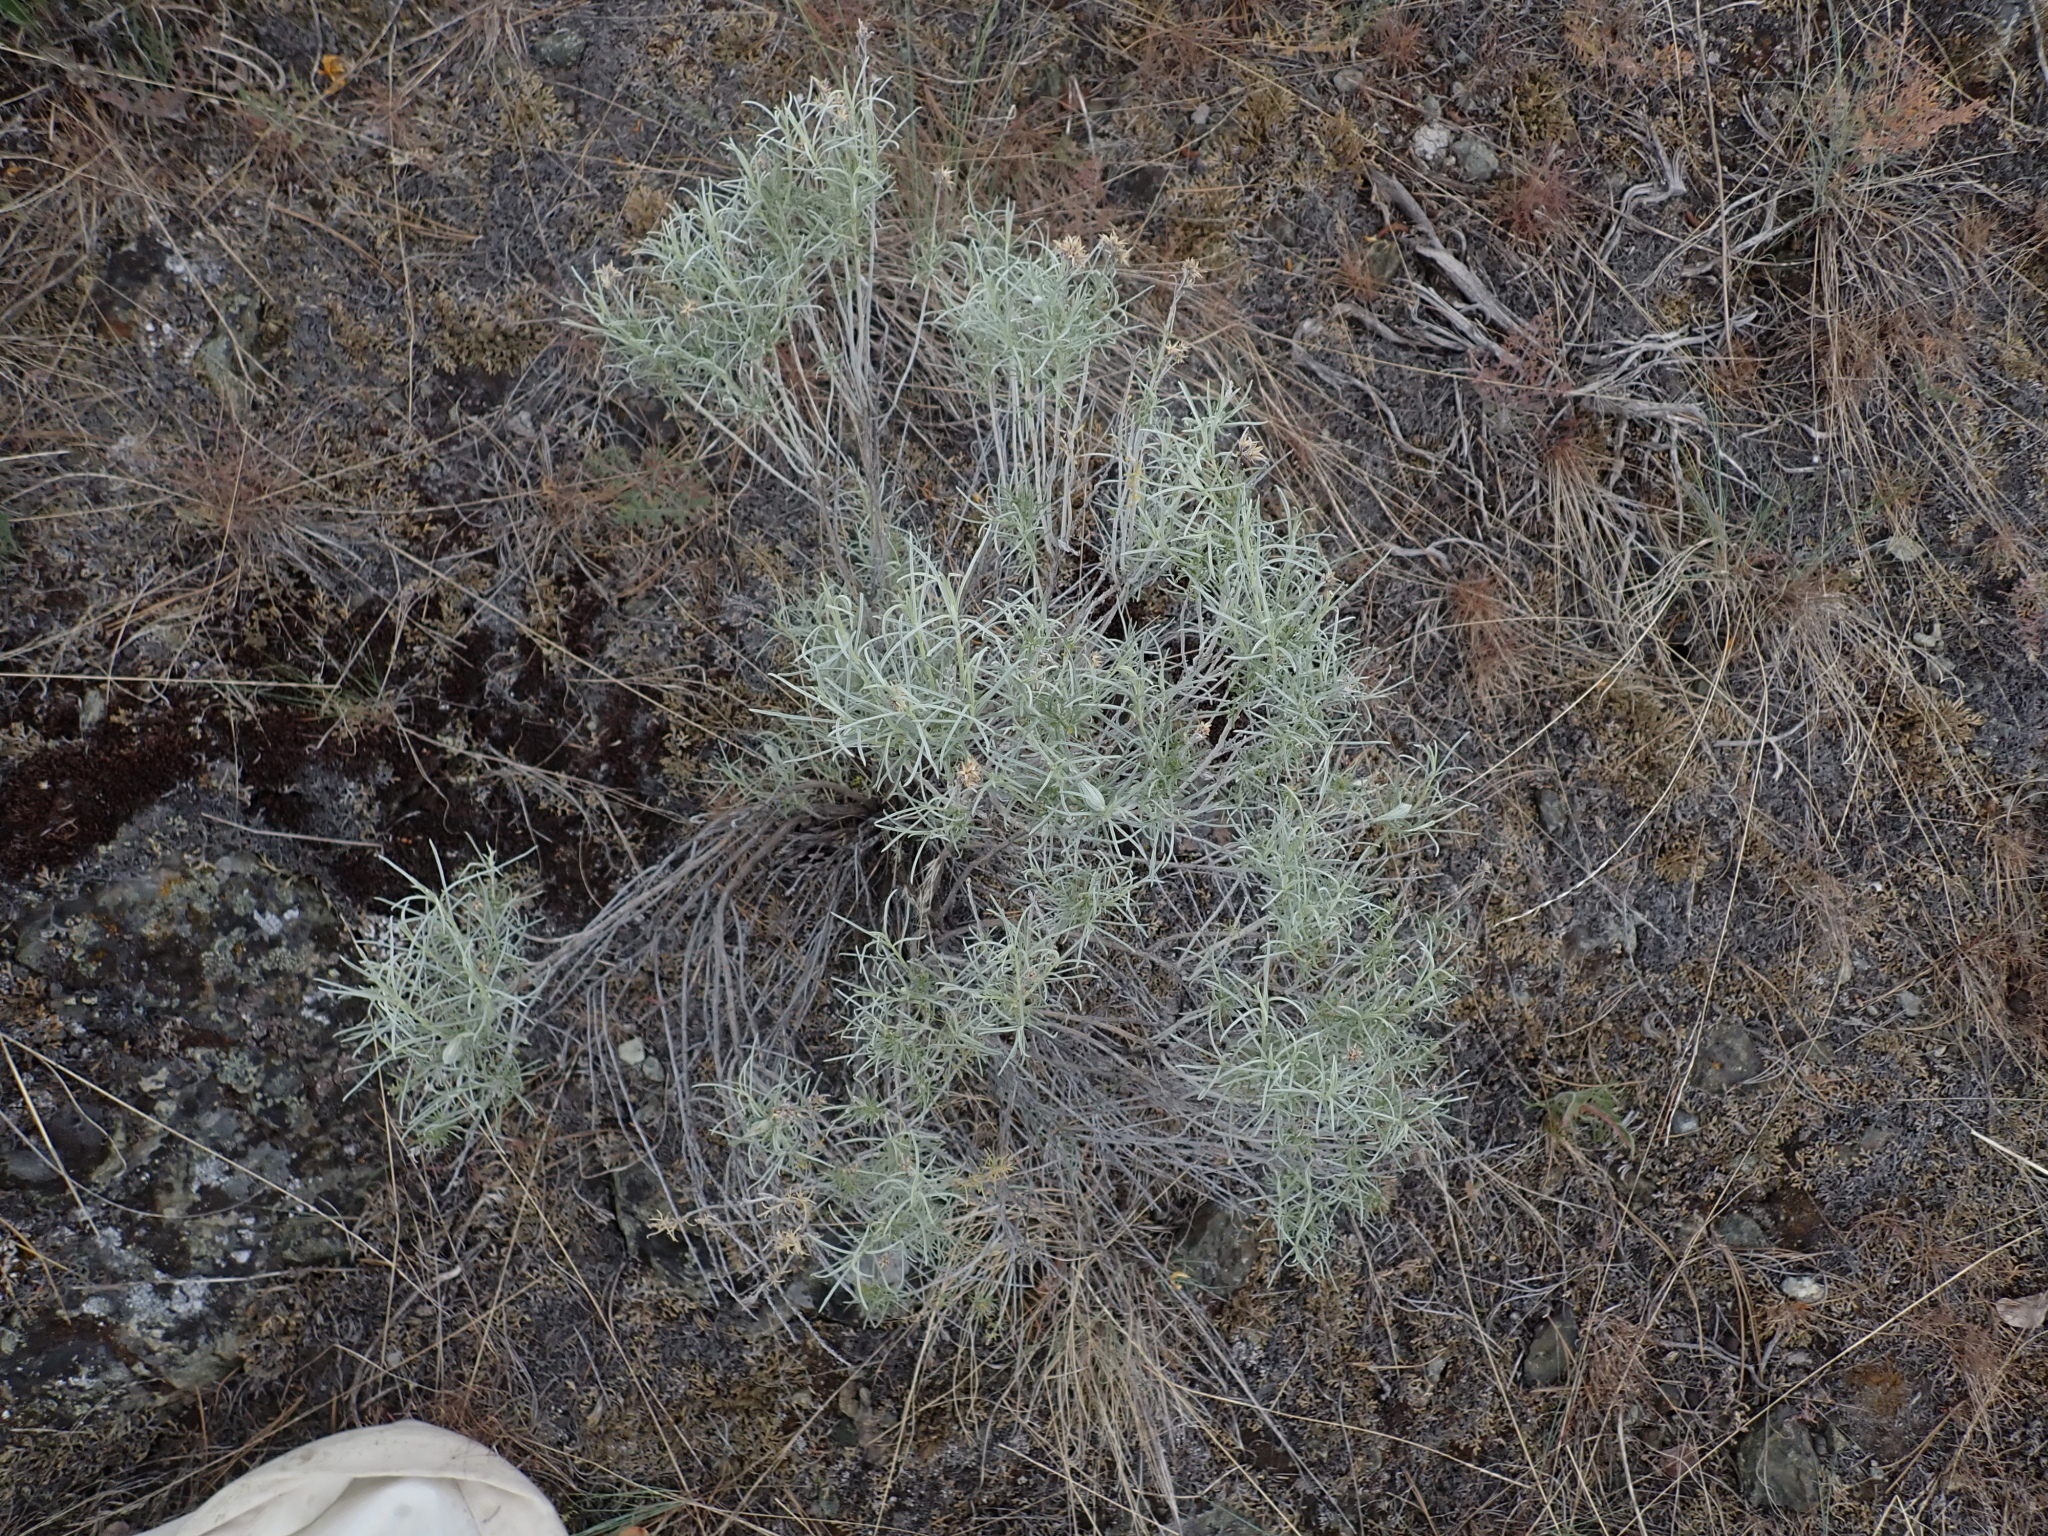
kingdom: Plantae
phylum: Tracheophyta
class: Magnoliopsida
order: Asterales
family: Asteraceae
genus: Ericameria
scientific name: Ericameria nauseosa
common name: Rubber rabbitbrush
